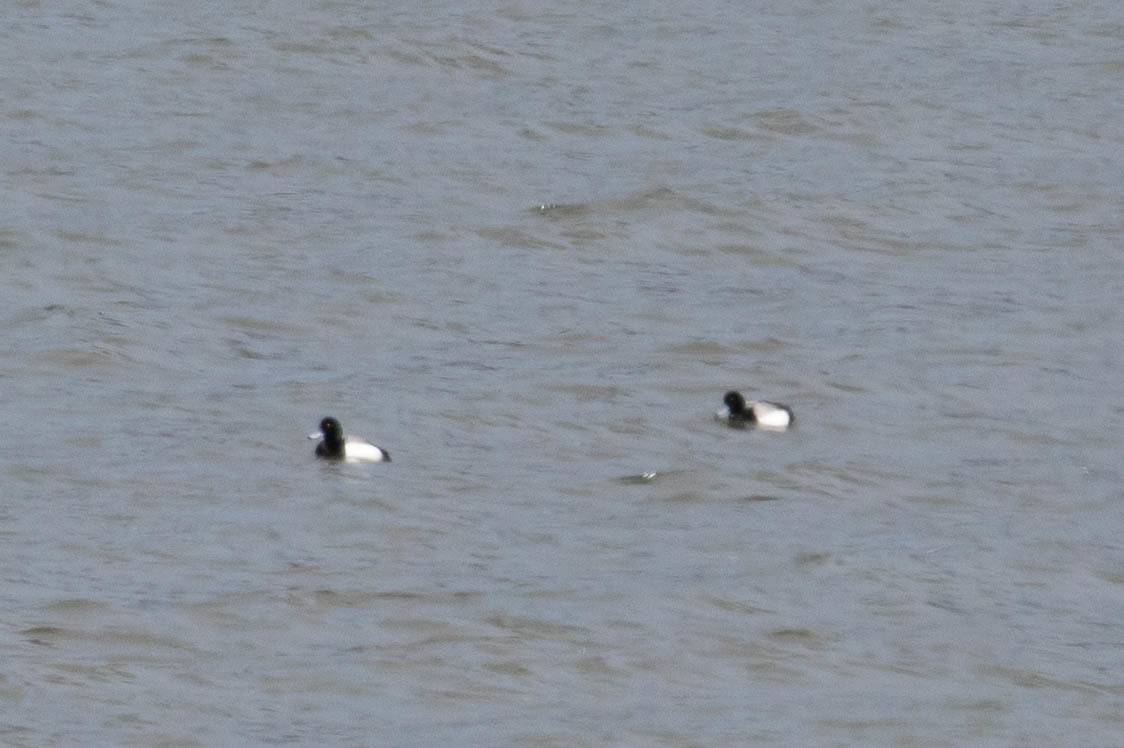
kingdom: Animalia
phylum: Chordata
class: Aves
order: Anseriformes
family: Anatidae
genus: Aythya
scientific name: Aythya marila
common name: Greater scaup
